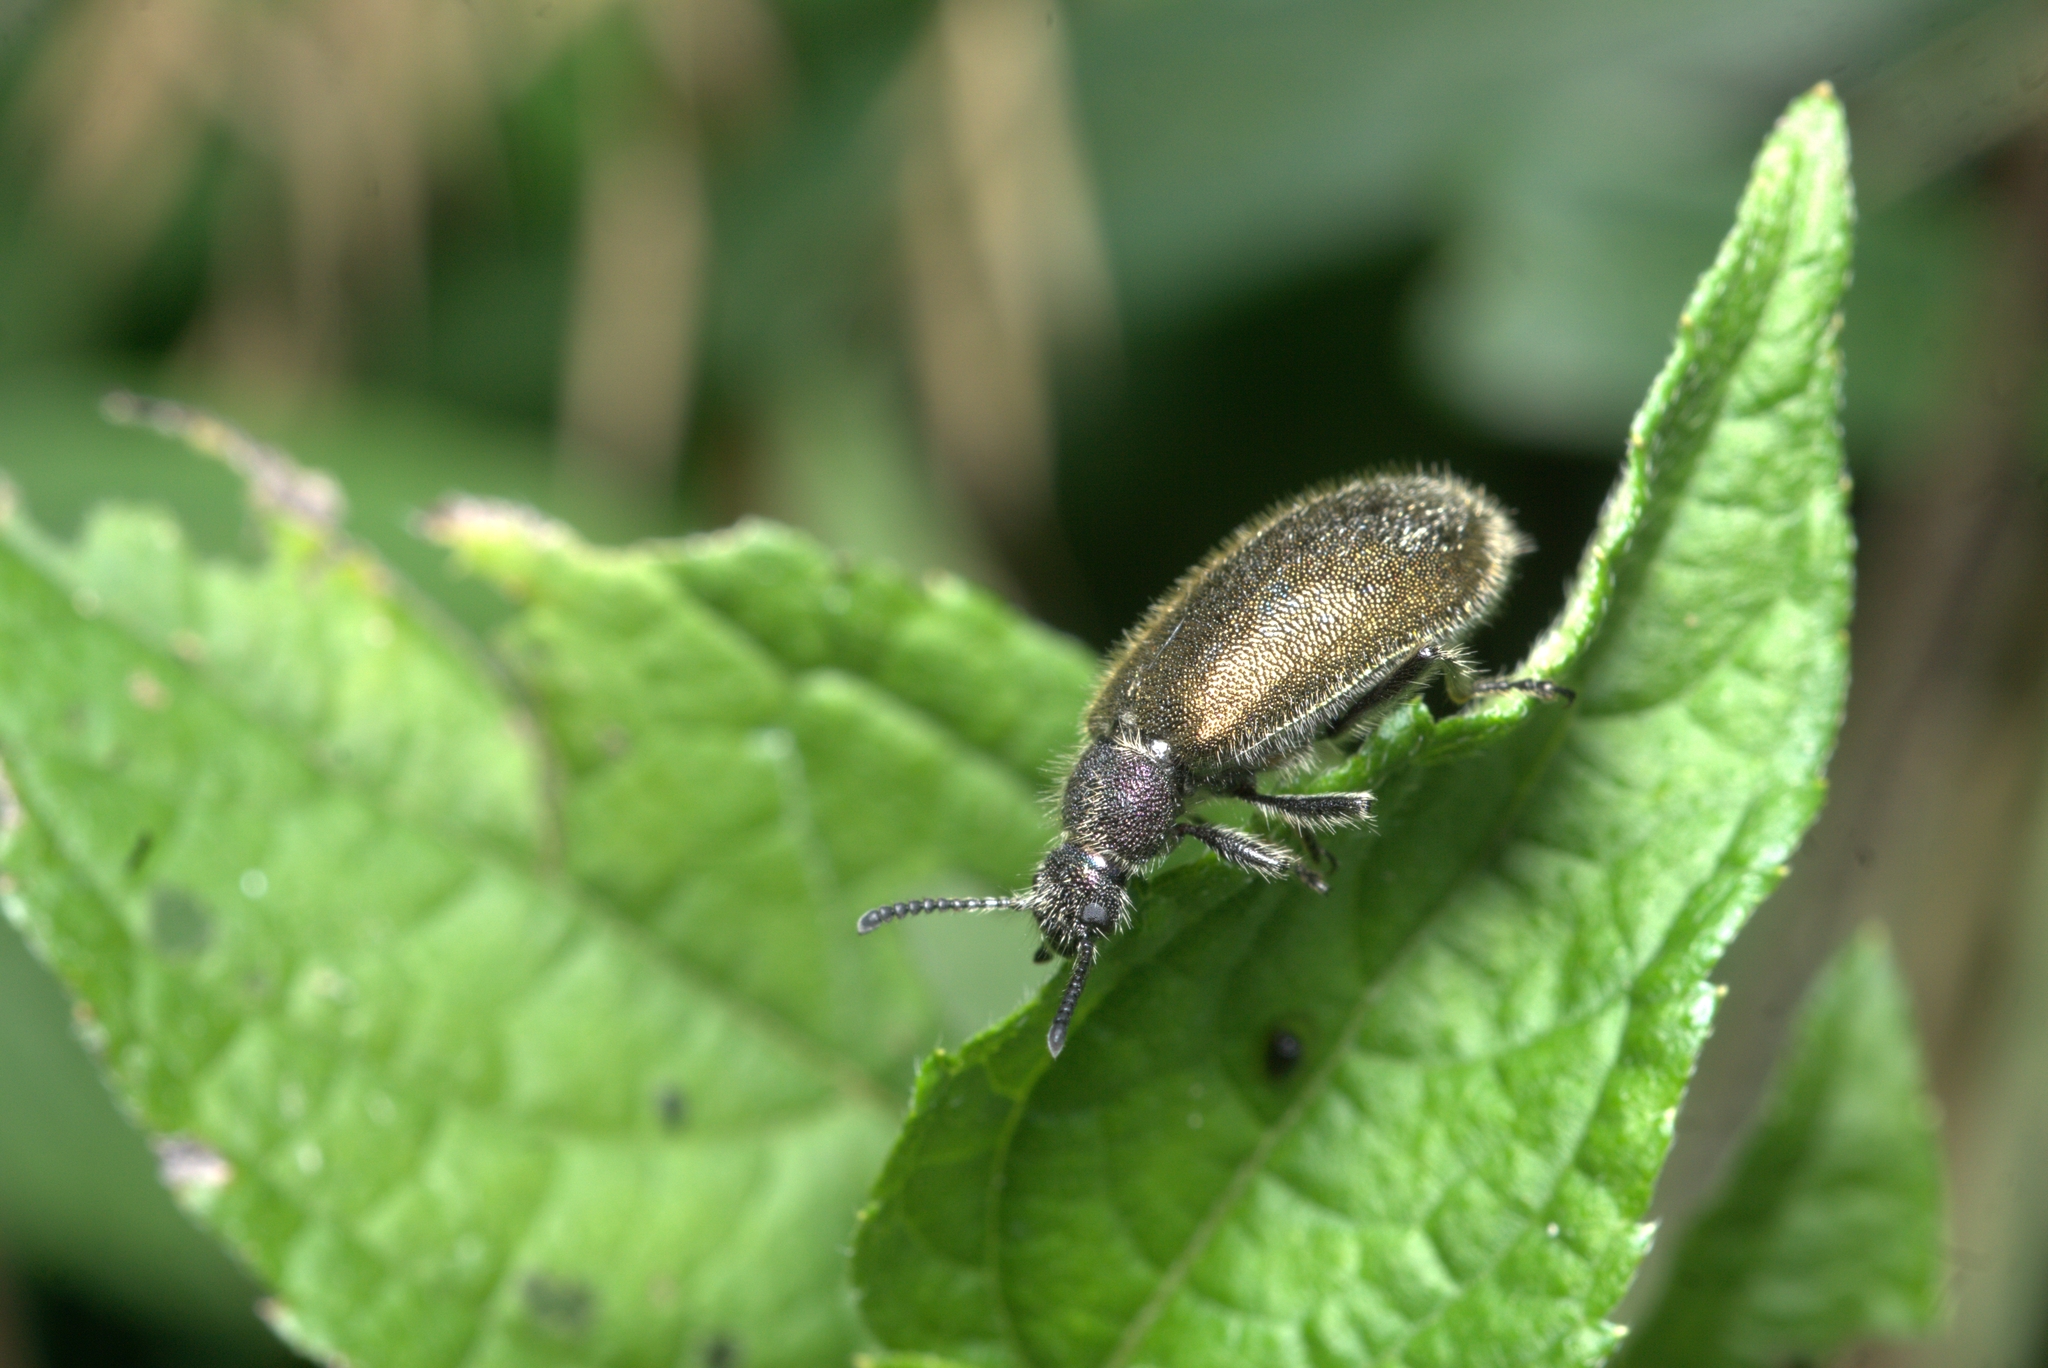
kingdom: Animalia
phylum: Arthropoda
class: Insecta
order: Coleoptera
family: Tenebrionidae
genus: Lagria
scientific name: Lagria villosa
